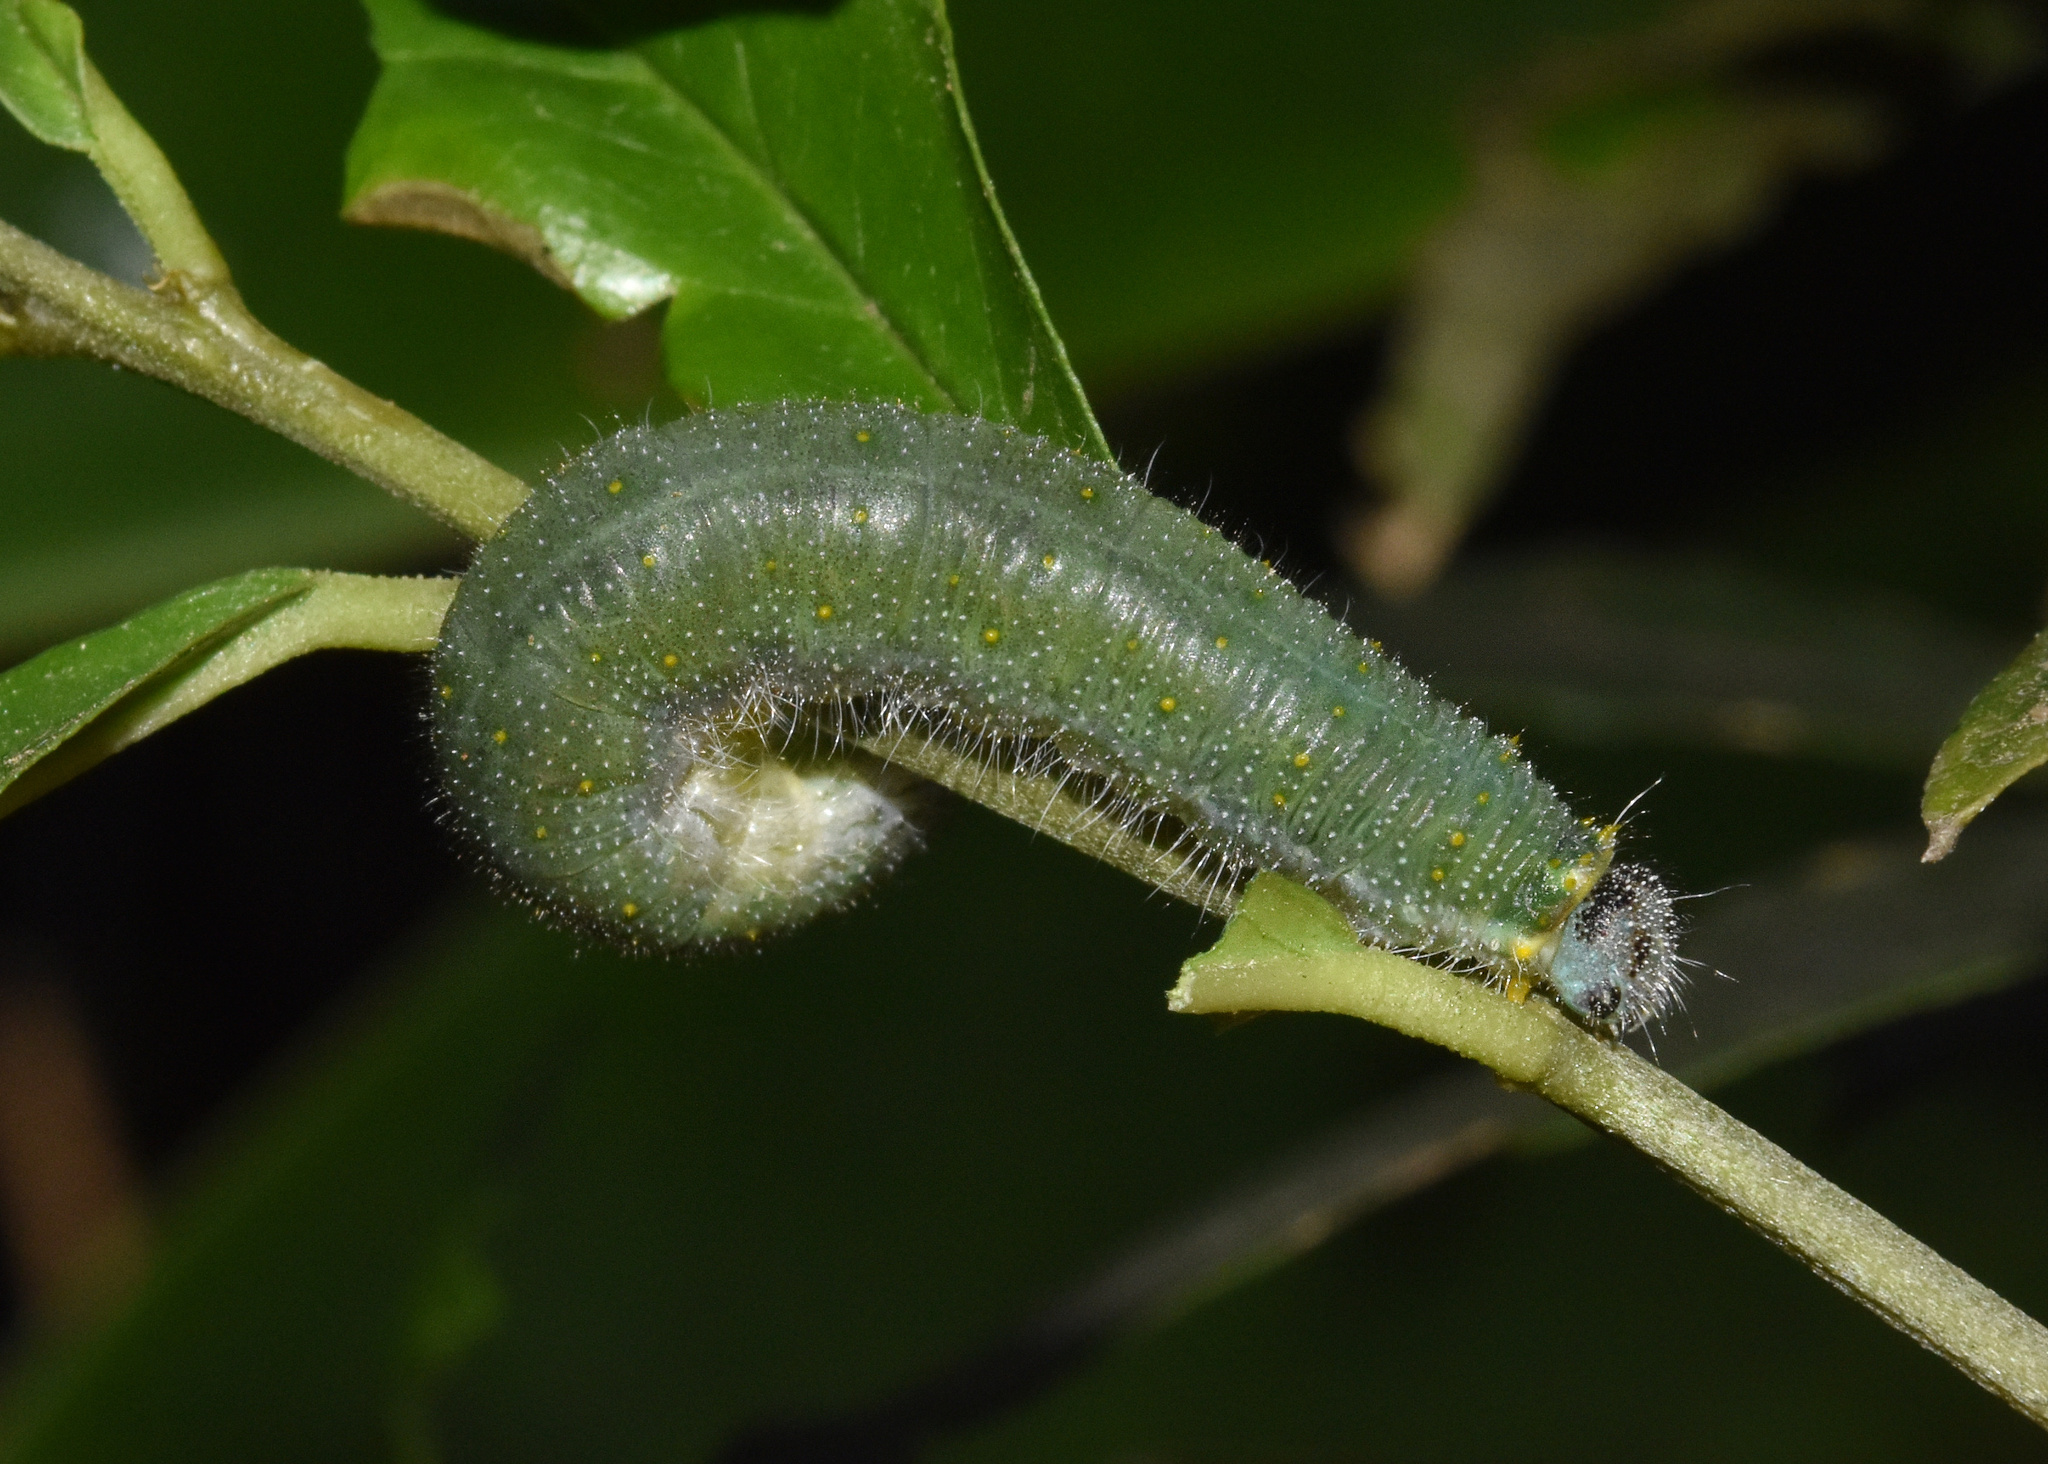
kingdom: Animalia
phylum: Arthropoda
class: Insecta
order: Lepidoptera
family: Pieridae
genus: Belenois
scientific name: Belenois thysa
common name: False dotted border
